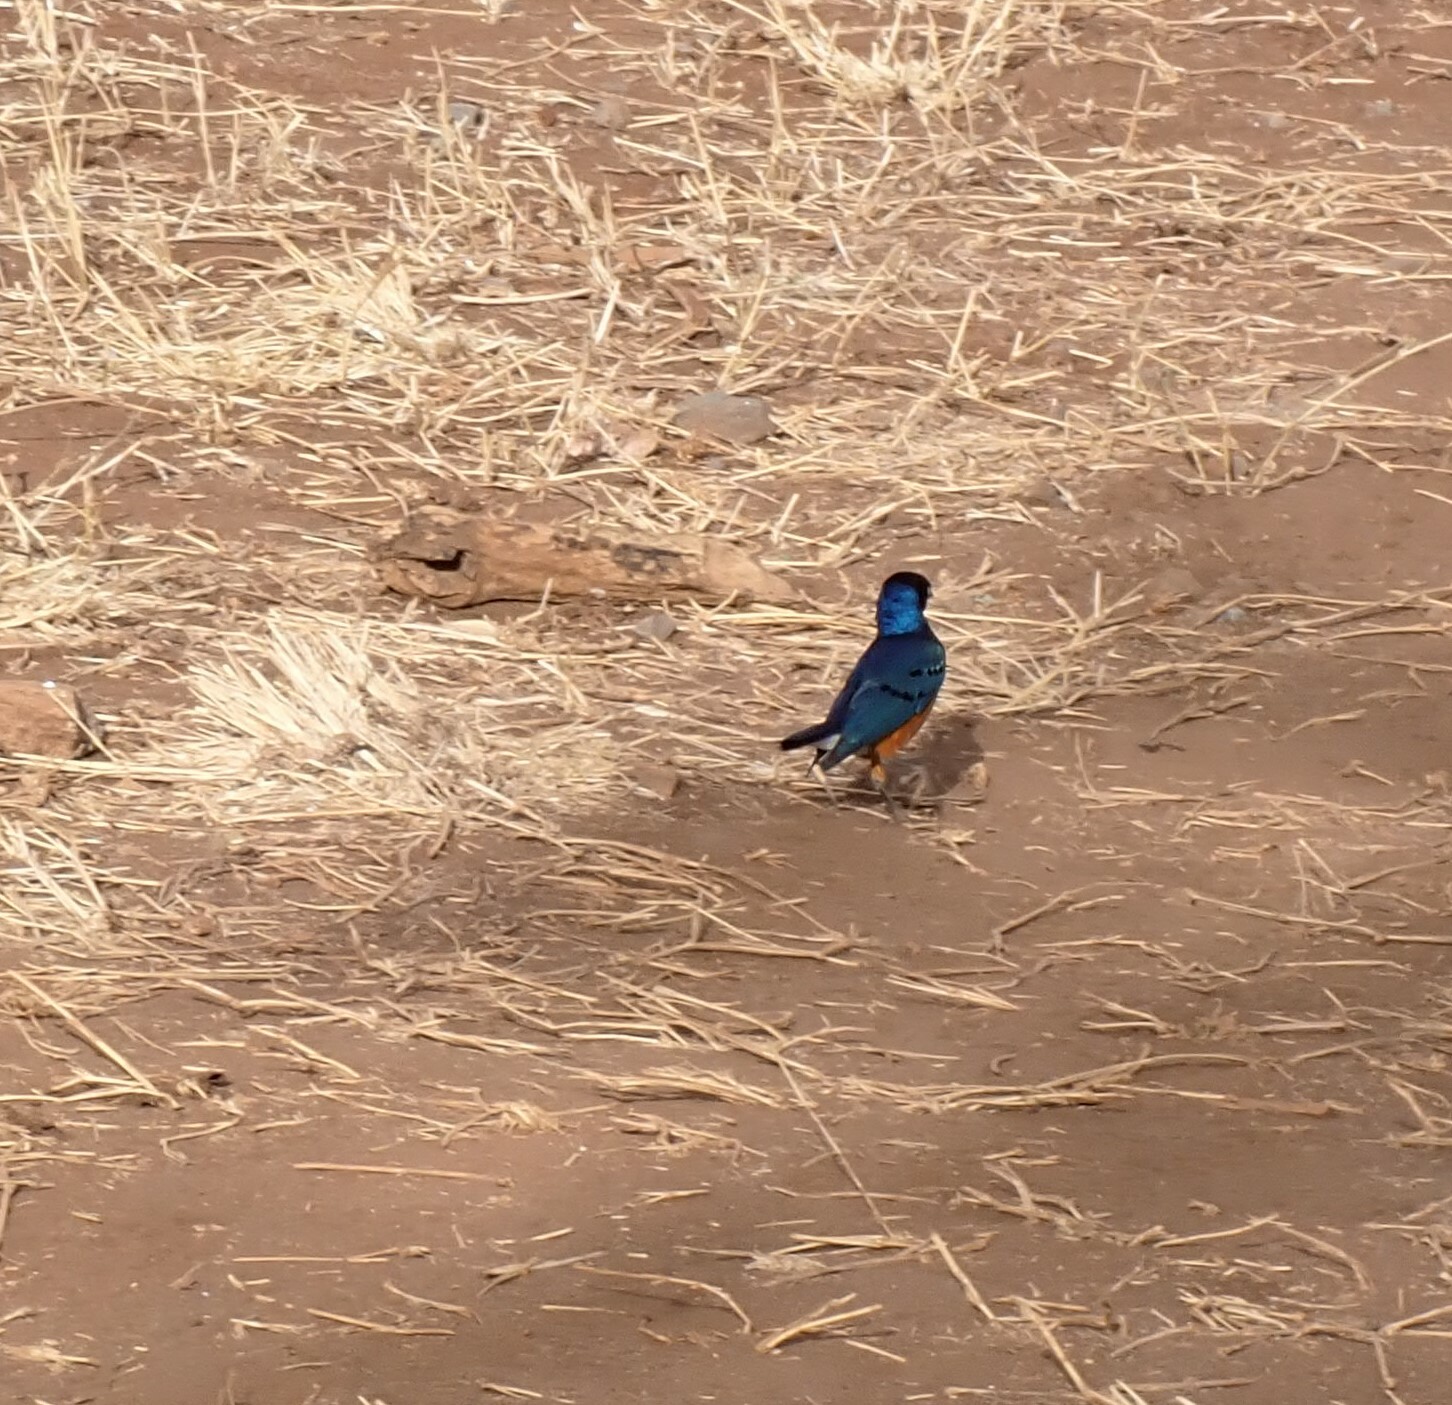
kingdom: Animalia
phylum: Chordata
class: Aves
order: Passeriformes
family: Sturnidae
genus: Lamprotornis
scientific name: Lamprotornis superbus
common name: Superb starling
